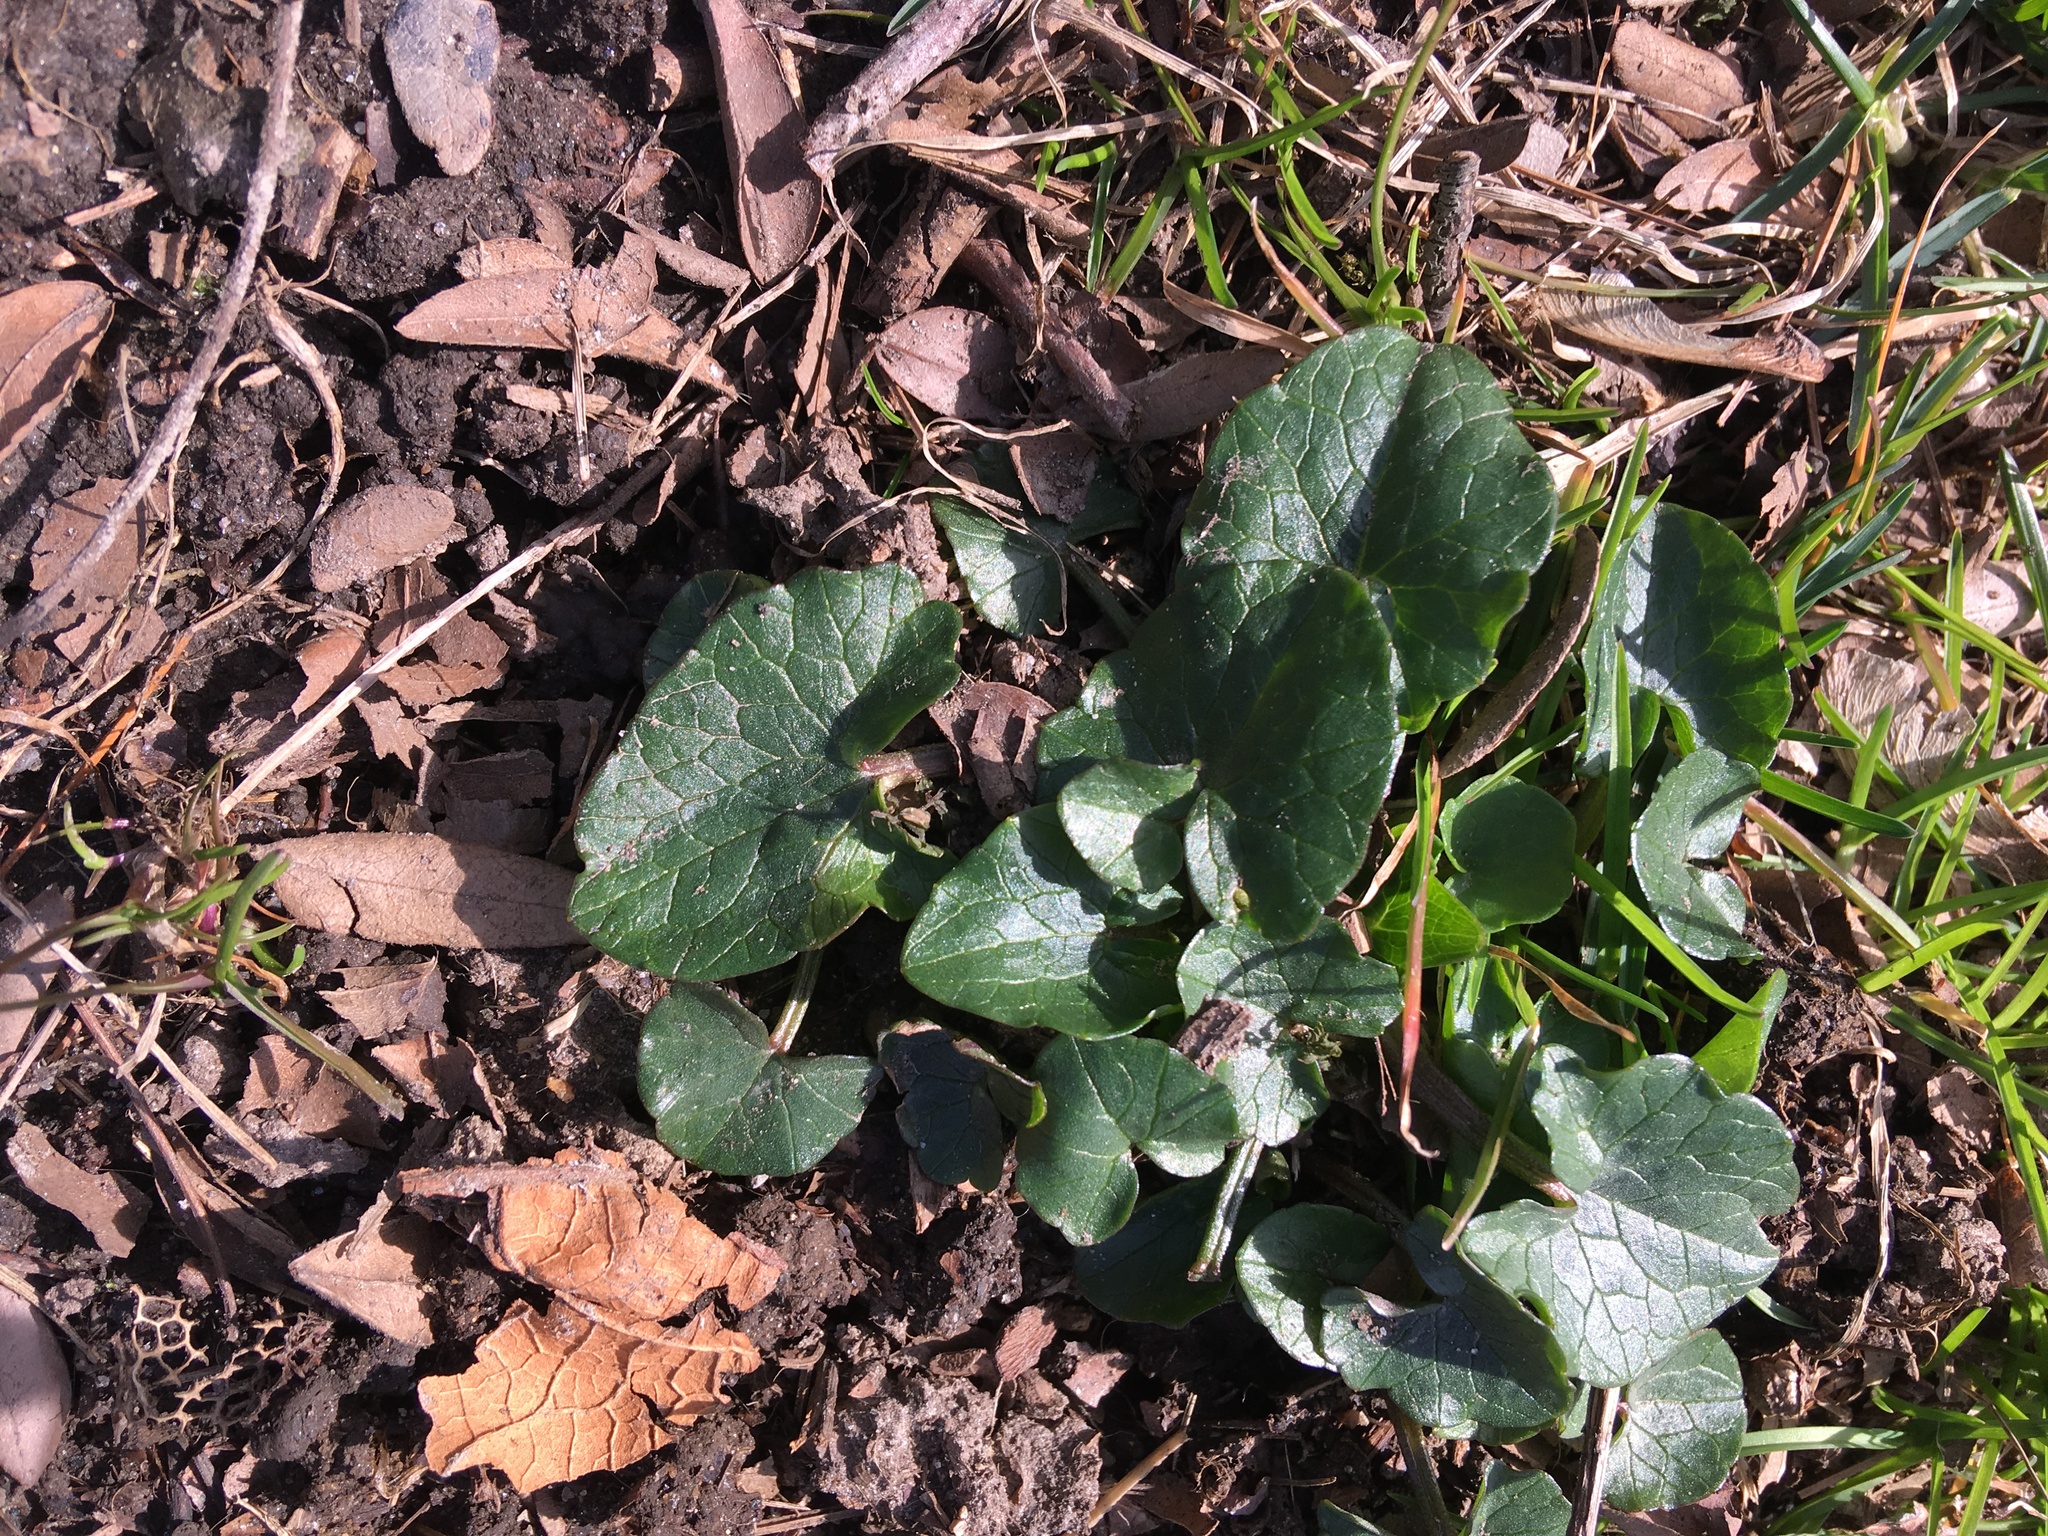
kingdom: Plantae
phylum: Tracheophyta
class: Magnoliopsida
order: Ranunculales
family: Ranunculaceae
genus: Ficaria
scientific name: Ficaria verna
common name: Lesser celandine
